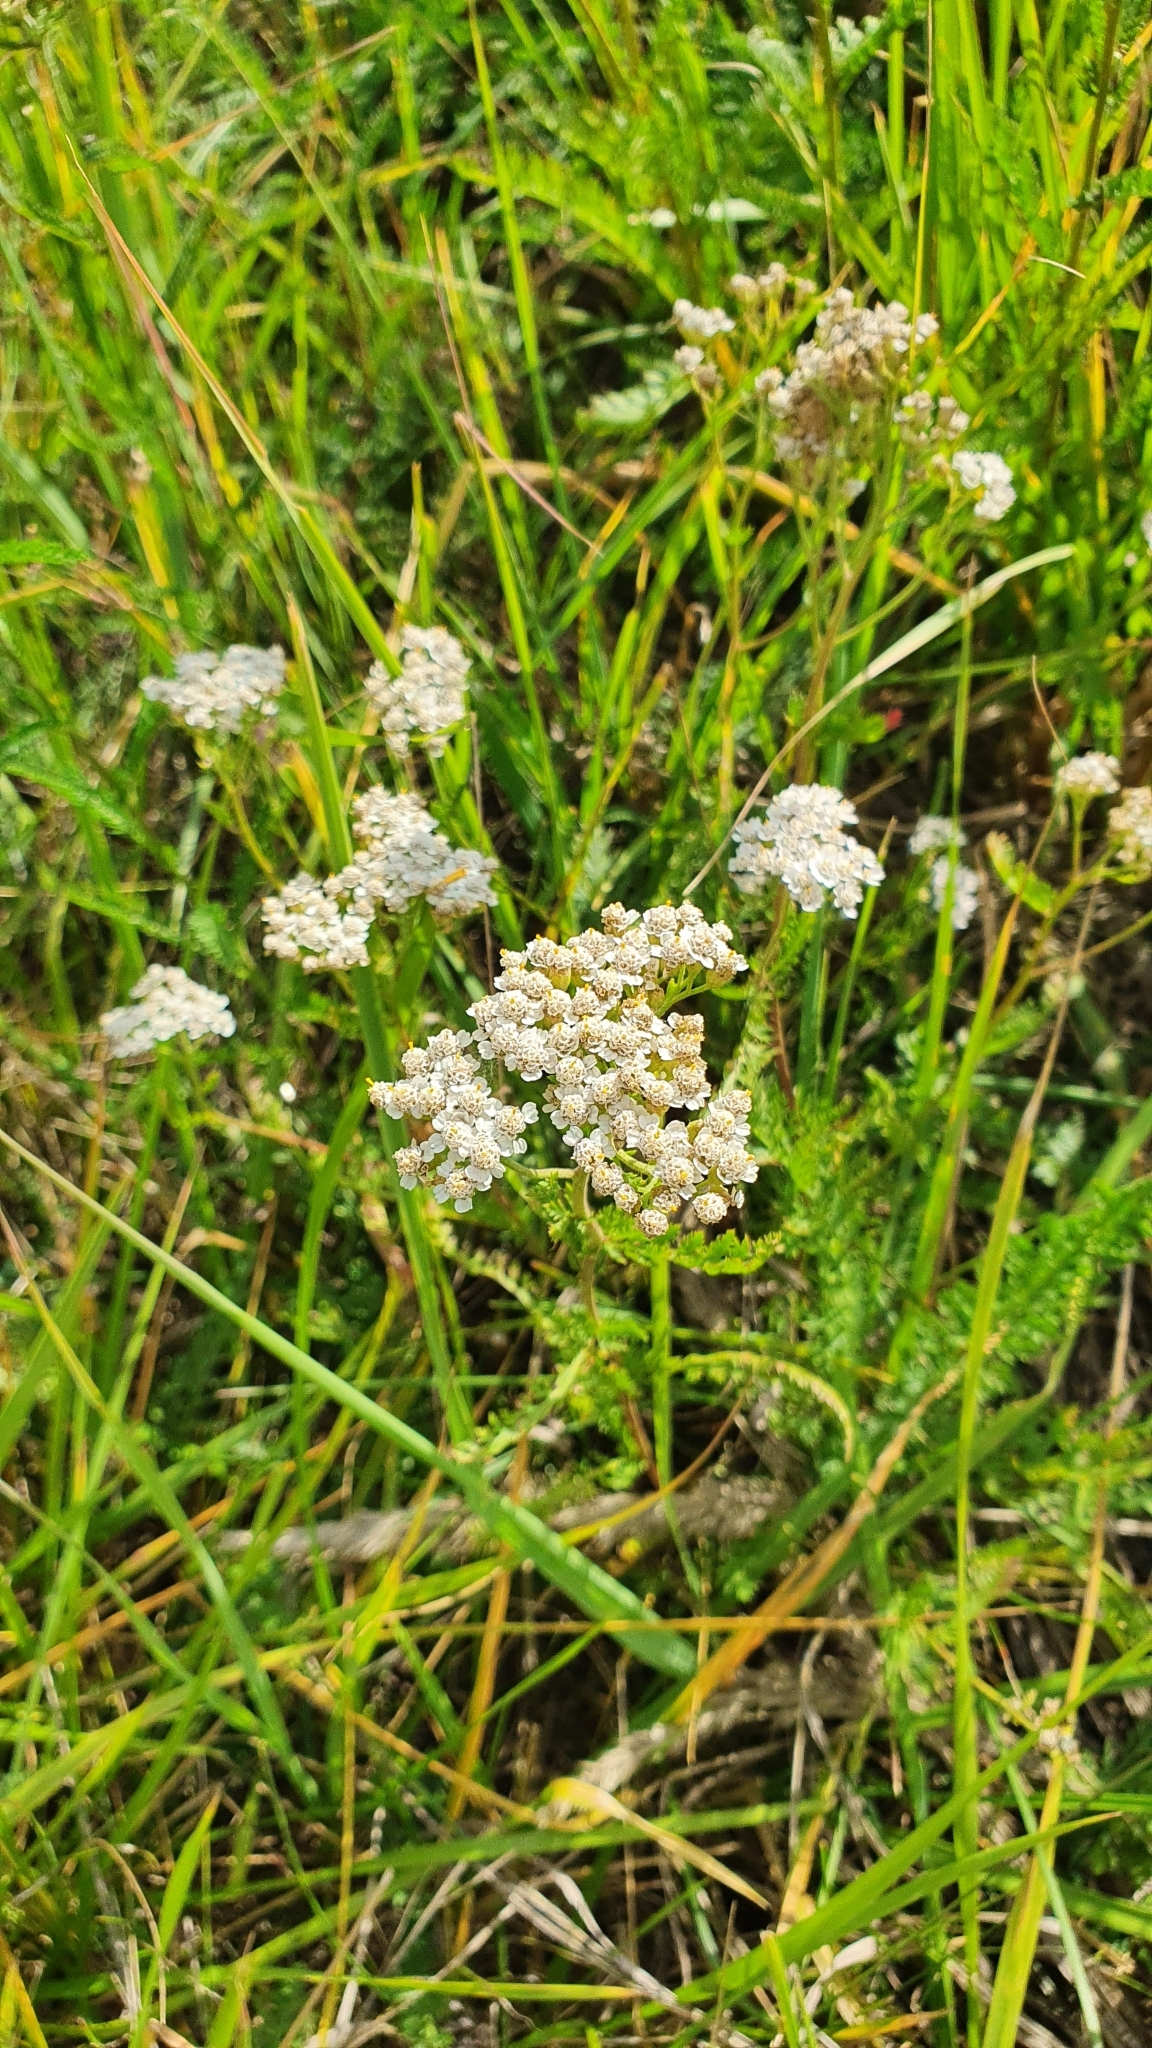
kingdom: Plantae
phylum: Tracheophyta
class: Magnoliopsida
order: Asterales
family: Asteraceae
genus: Achillea
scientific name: Achillea millefolium
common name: Yarrow
